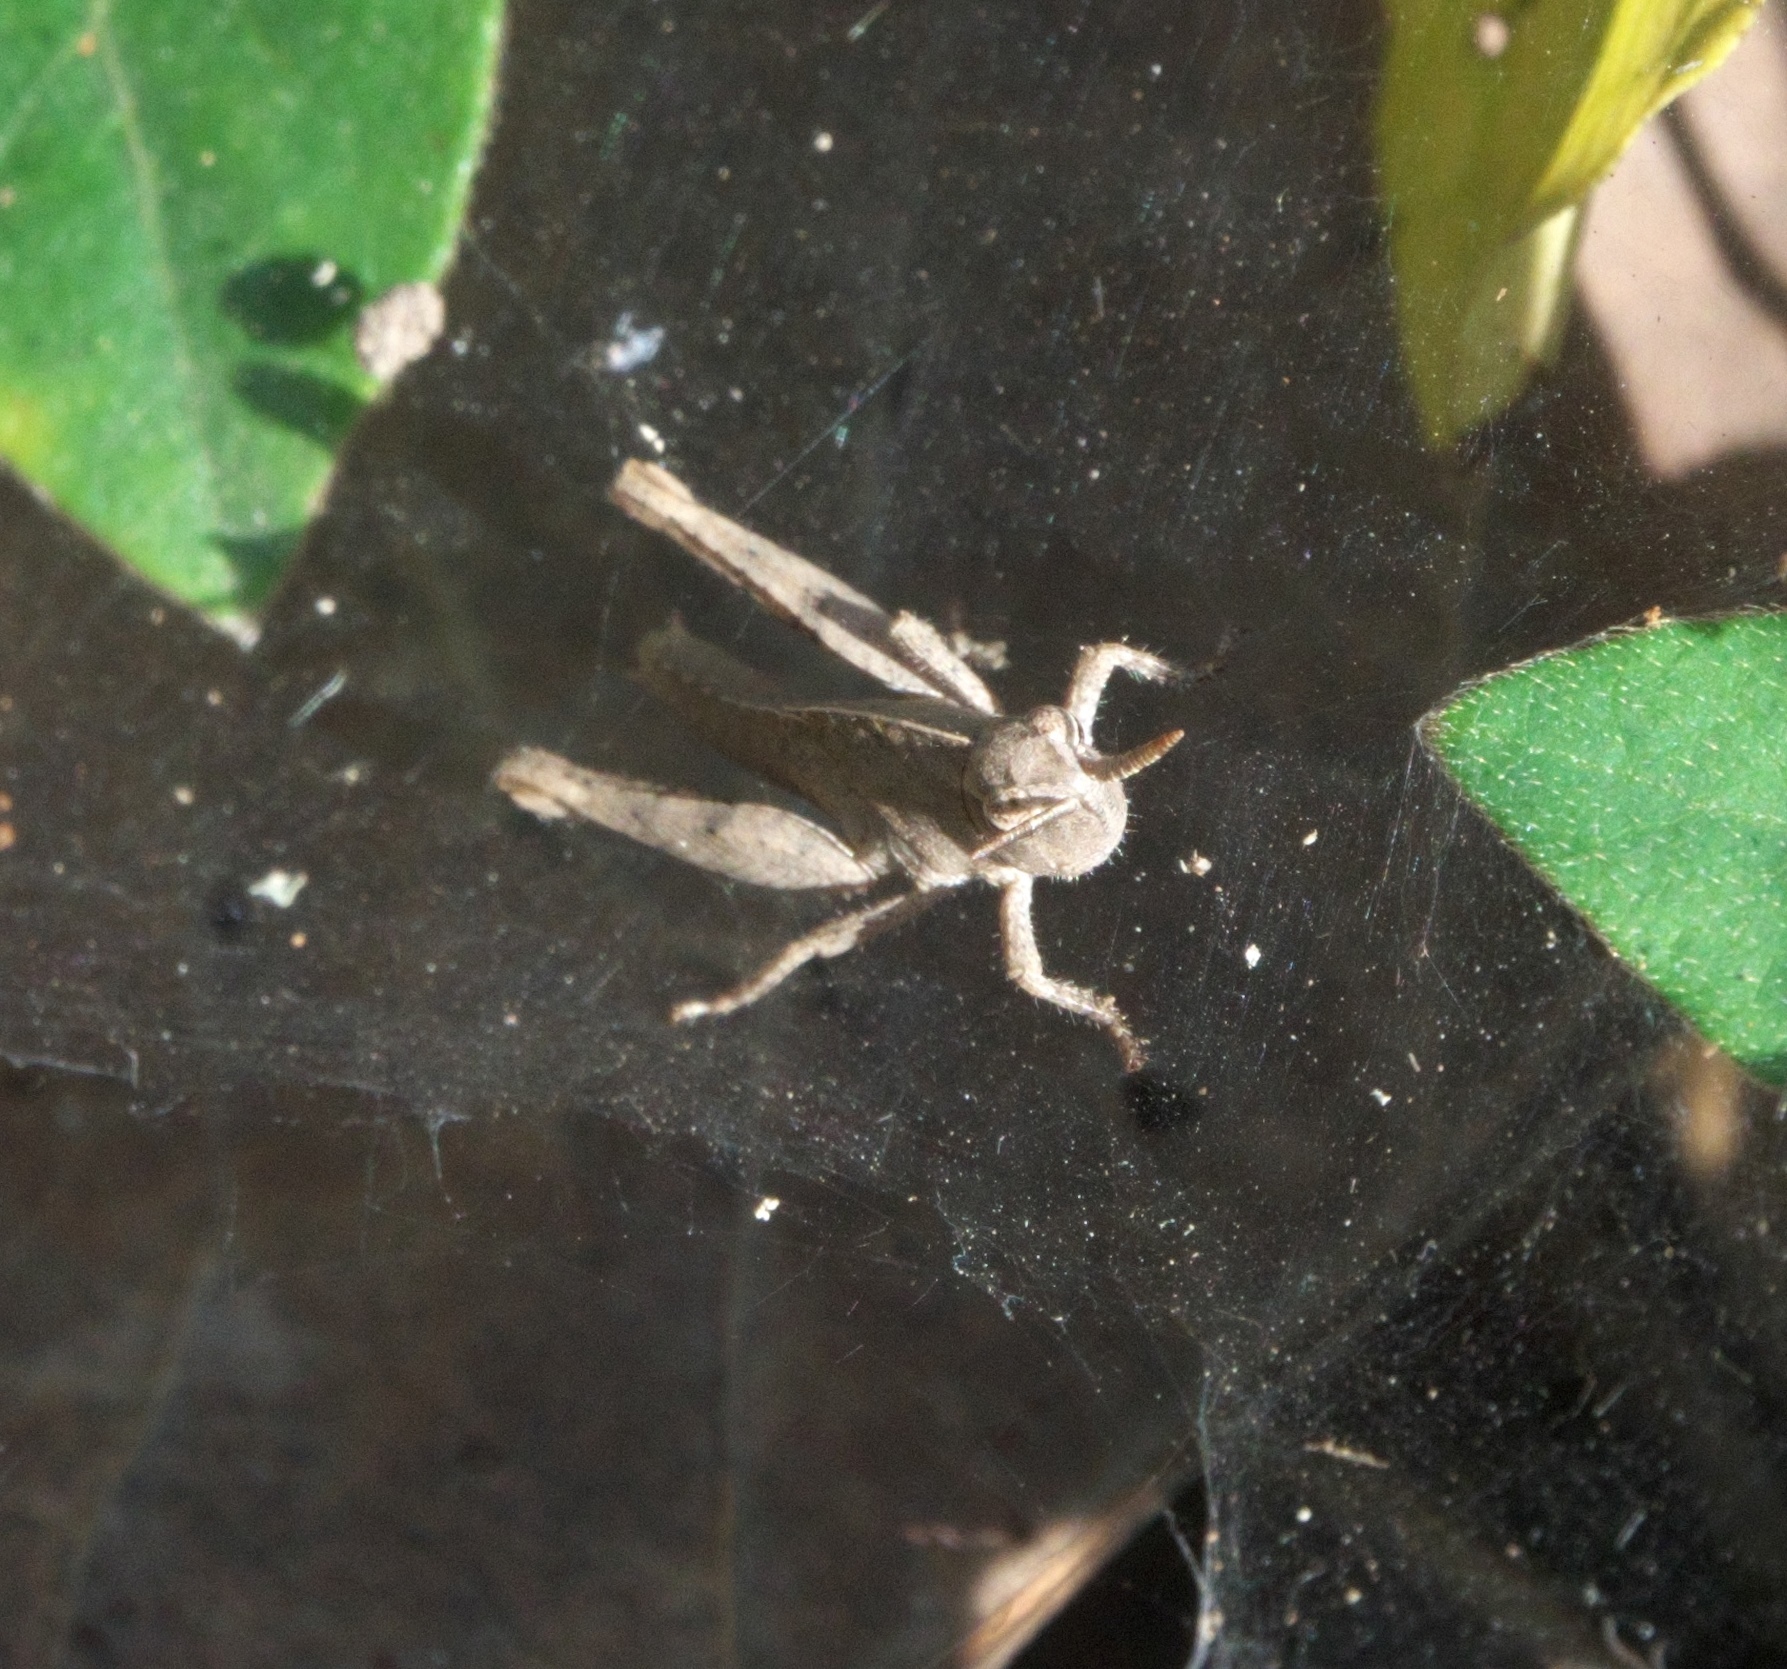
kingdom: Animalia
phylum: Arthropoda
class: Insecta
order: Orthoptera
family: Acrididae
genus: Chortophaga
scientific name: Chortophaga viridifasciata
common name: Green-striped grasshopper
